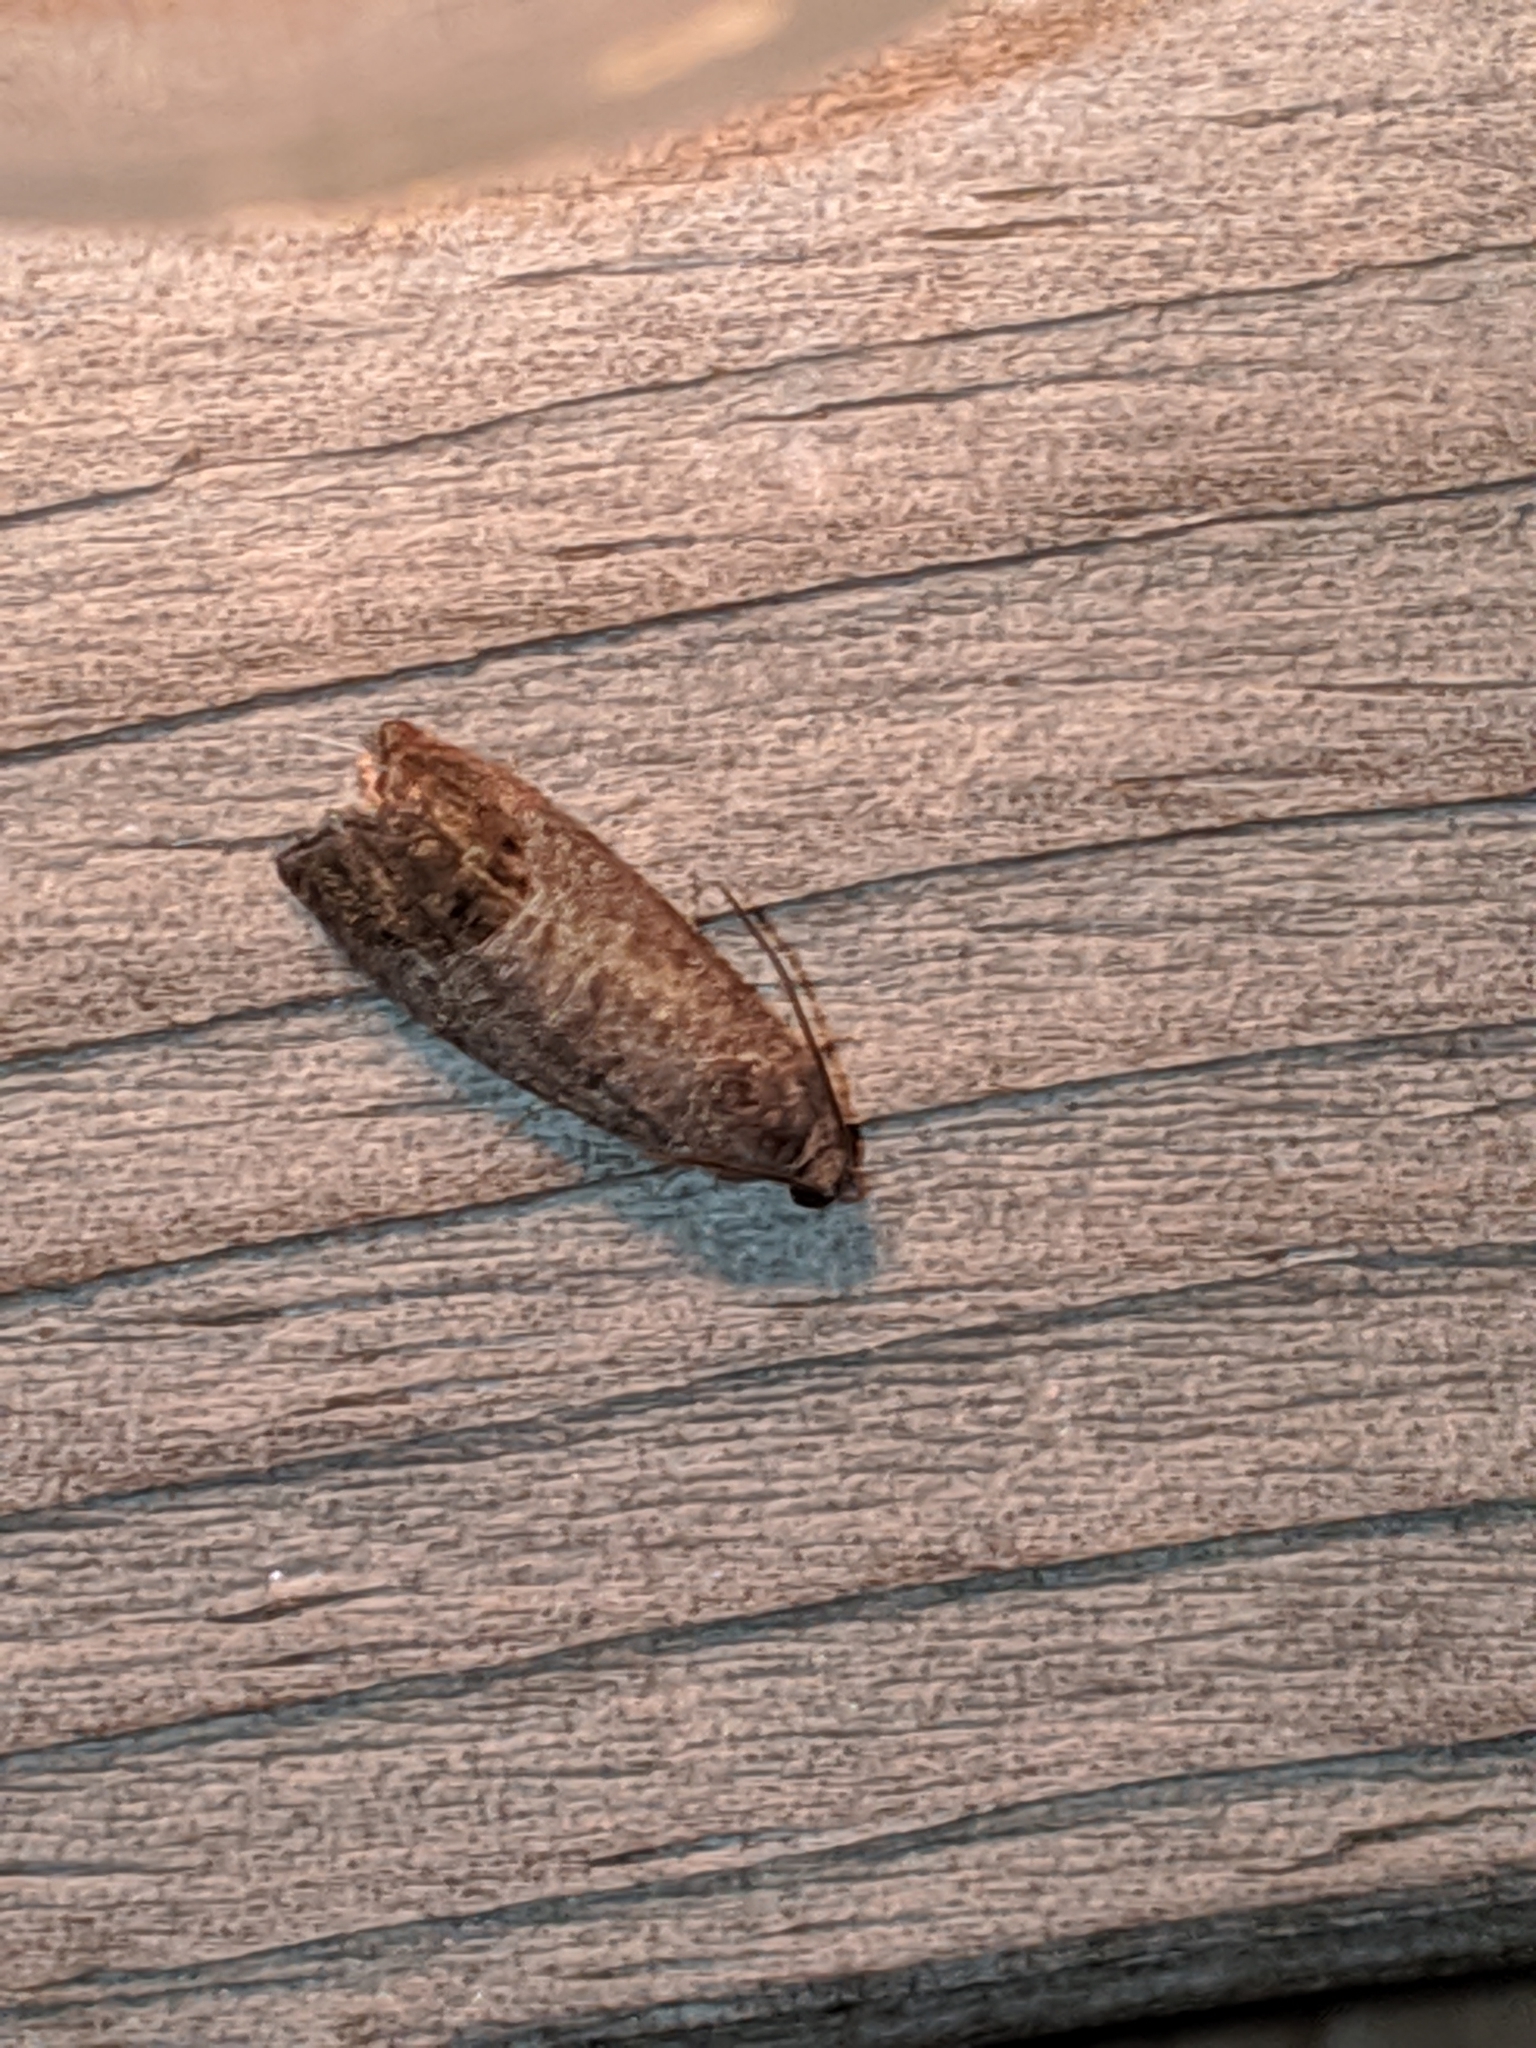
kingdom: Animalia
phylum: Arthropoda
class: Insecta
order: Lepidoptera
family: Tortricidae
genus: Cydia
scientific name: Cydia pomonella
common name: Codling moth
